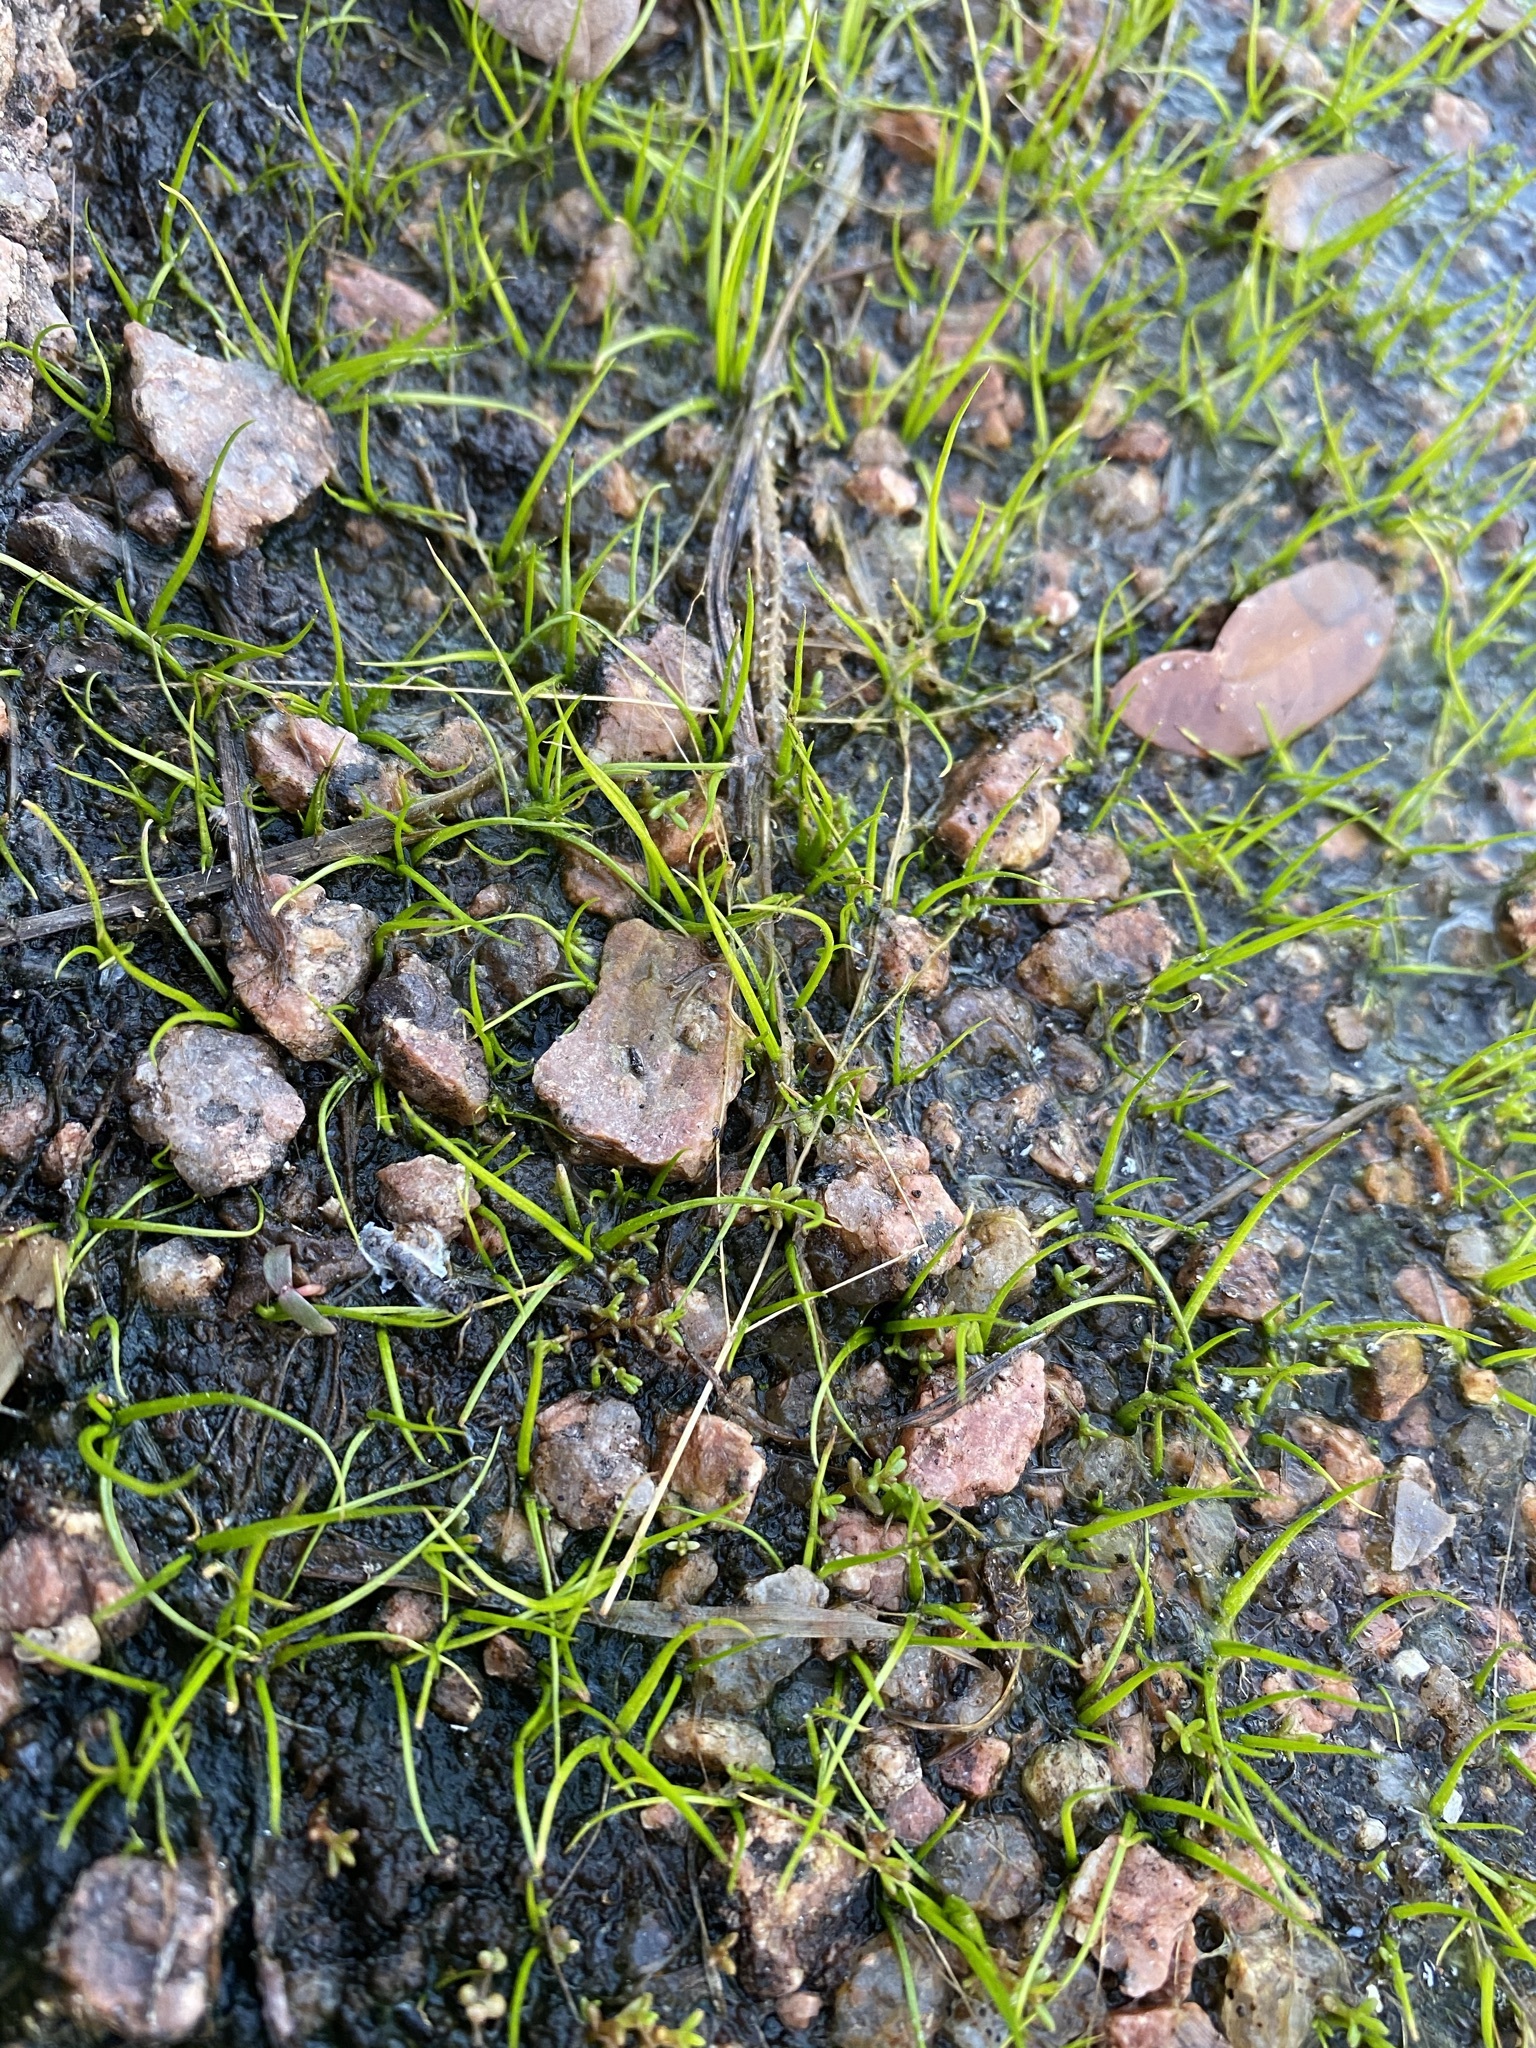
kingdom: Plantae
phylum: Tracheophyta
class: Lycopodiopsida
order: Isoetales
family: Isoetaceae
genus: Isoetes
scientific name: Isoetes lithophila
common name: Rock quillwort
